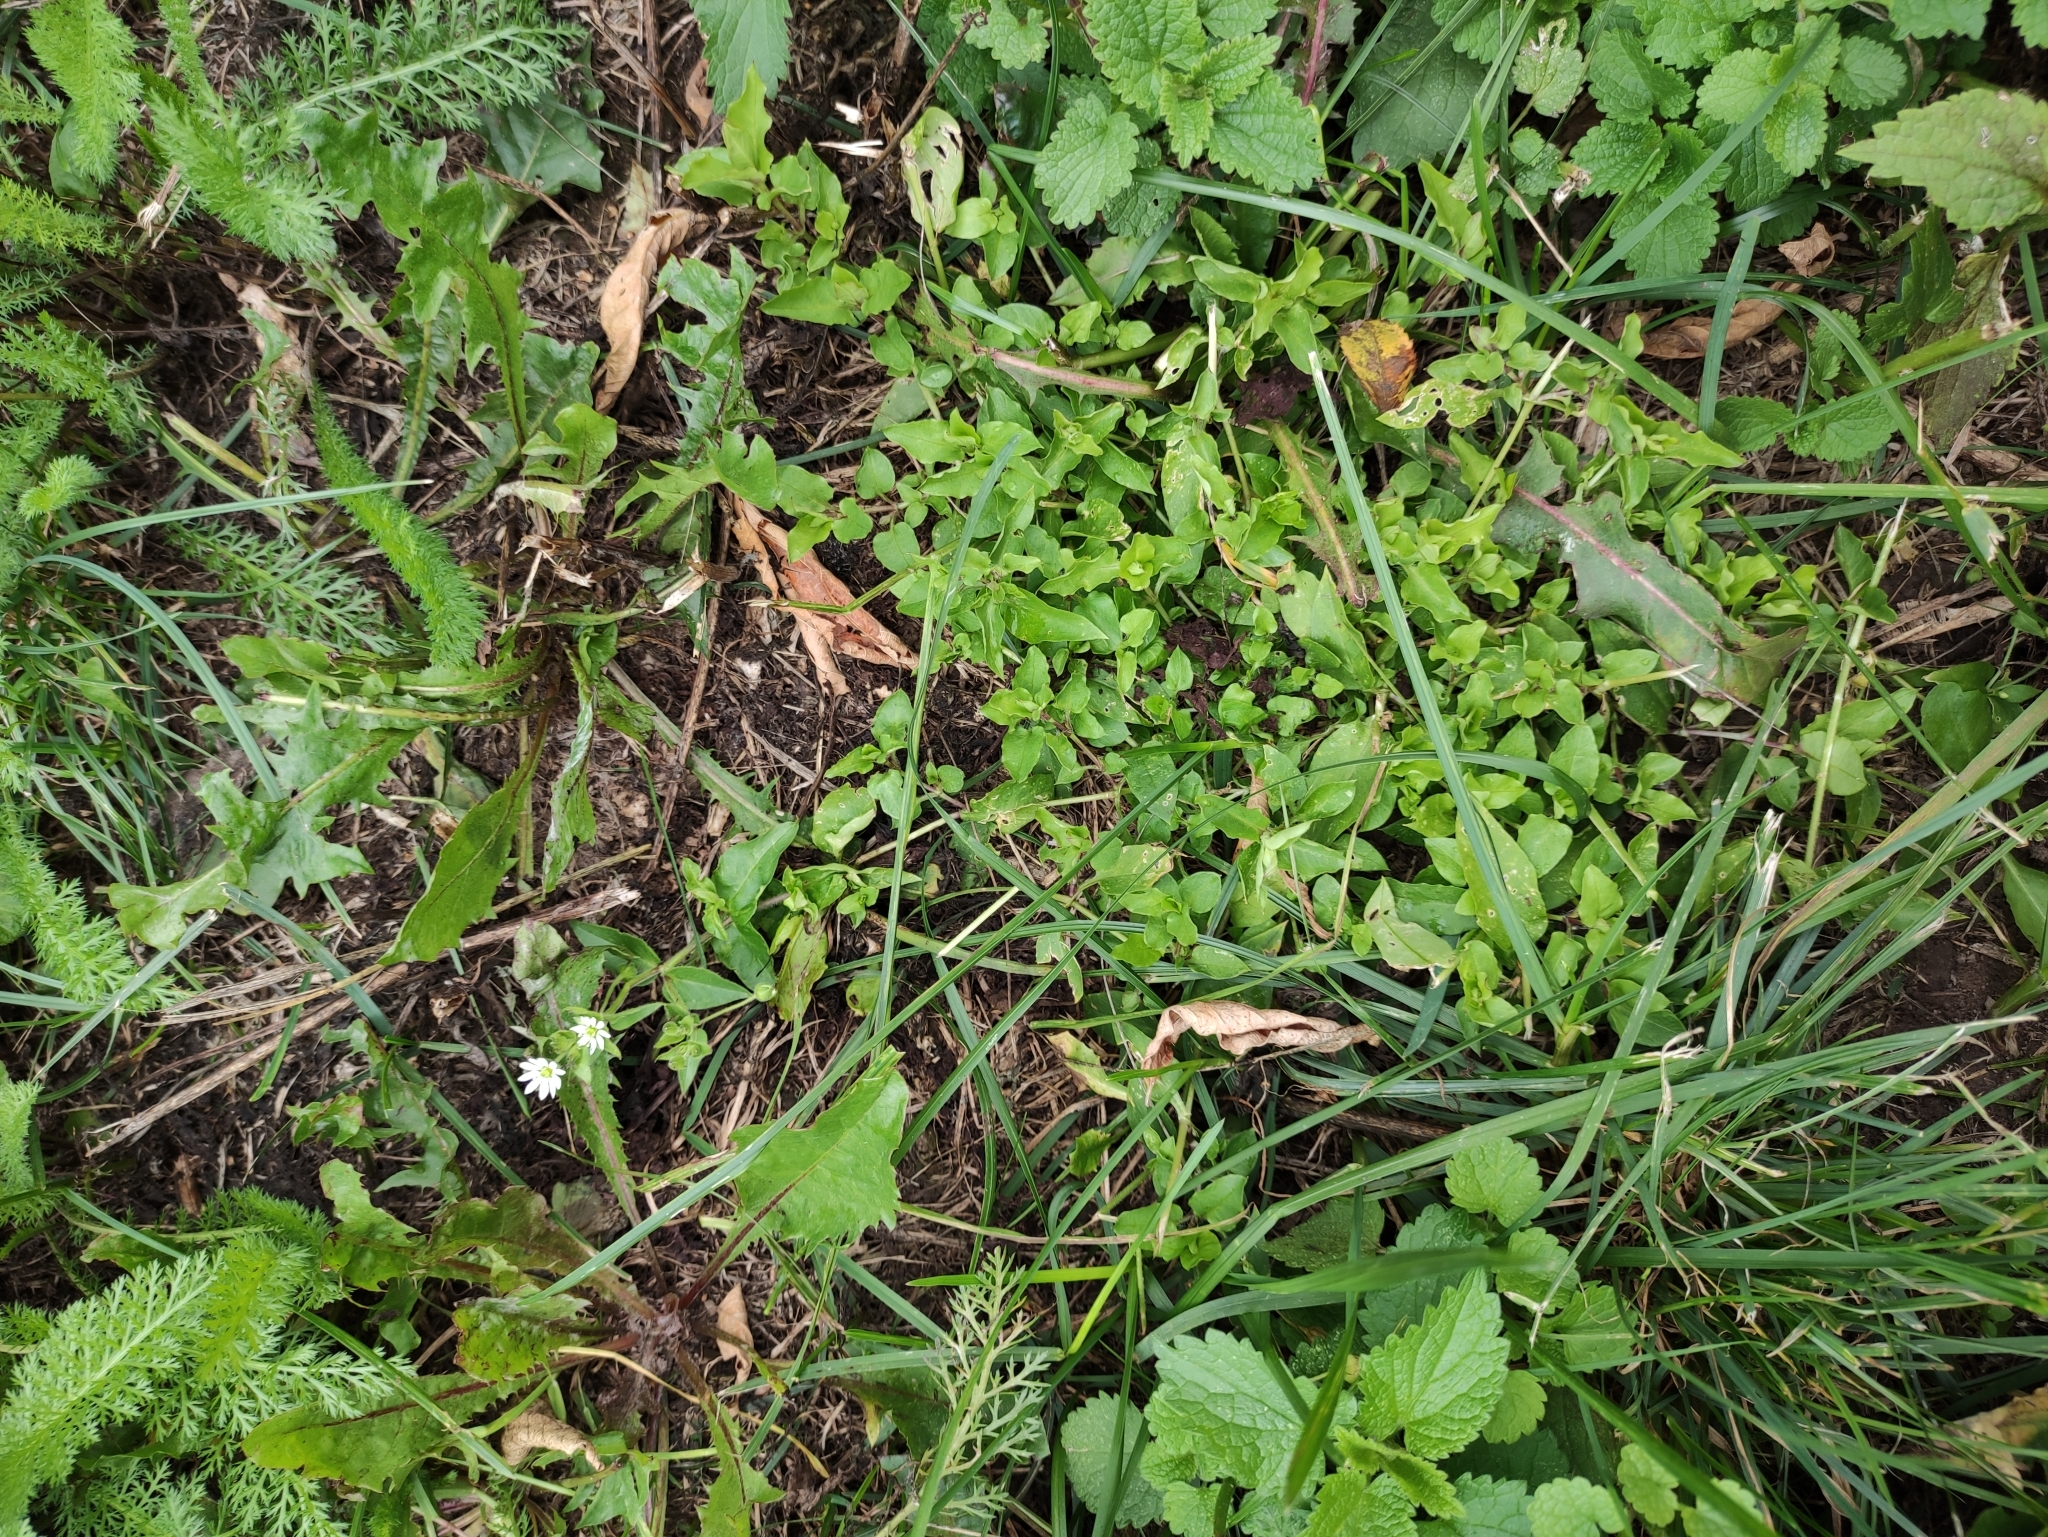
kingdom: Plantae
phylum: Tracheophyta
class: Magnoliopsida
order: Caryophyllales
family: Caryophyllaceae
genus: Stellaria
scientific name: Stellaria aquatica
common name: Water chickweed
